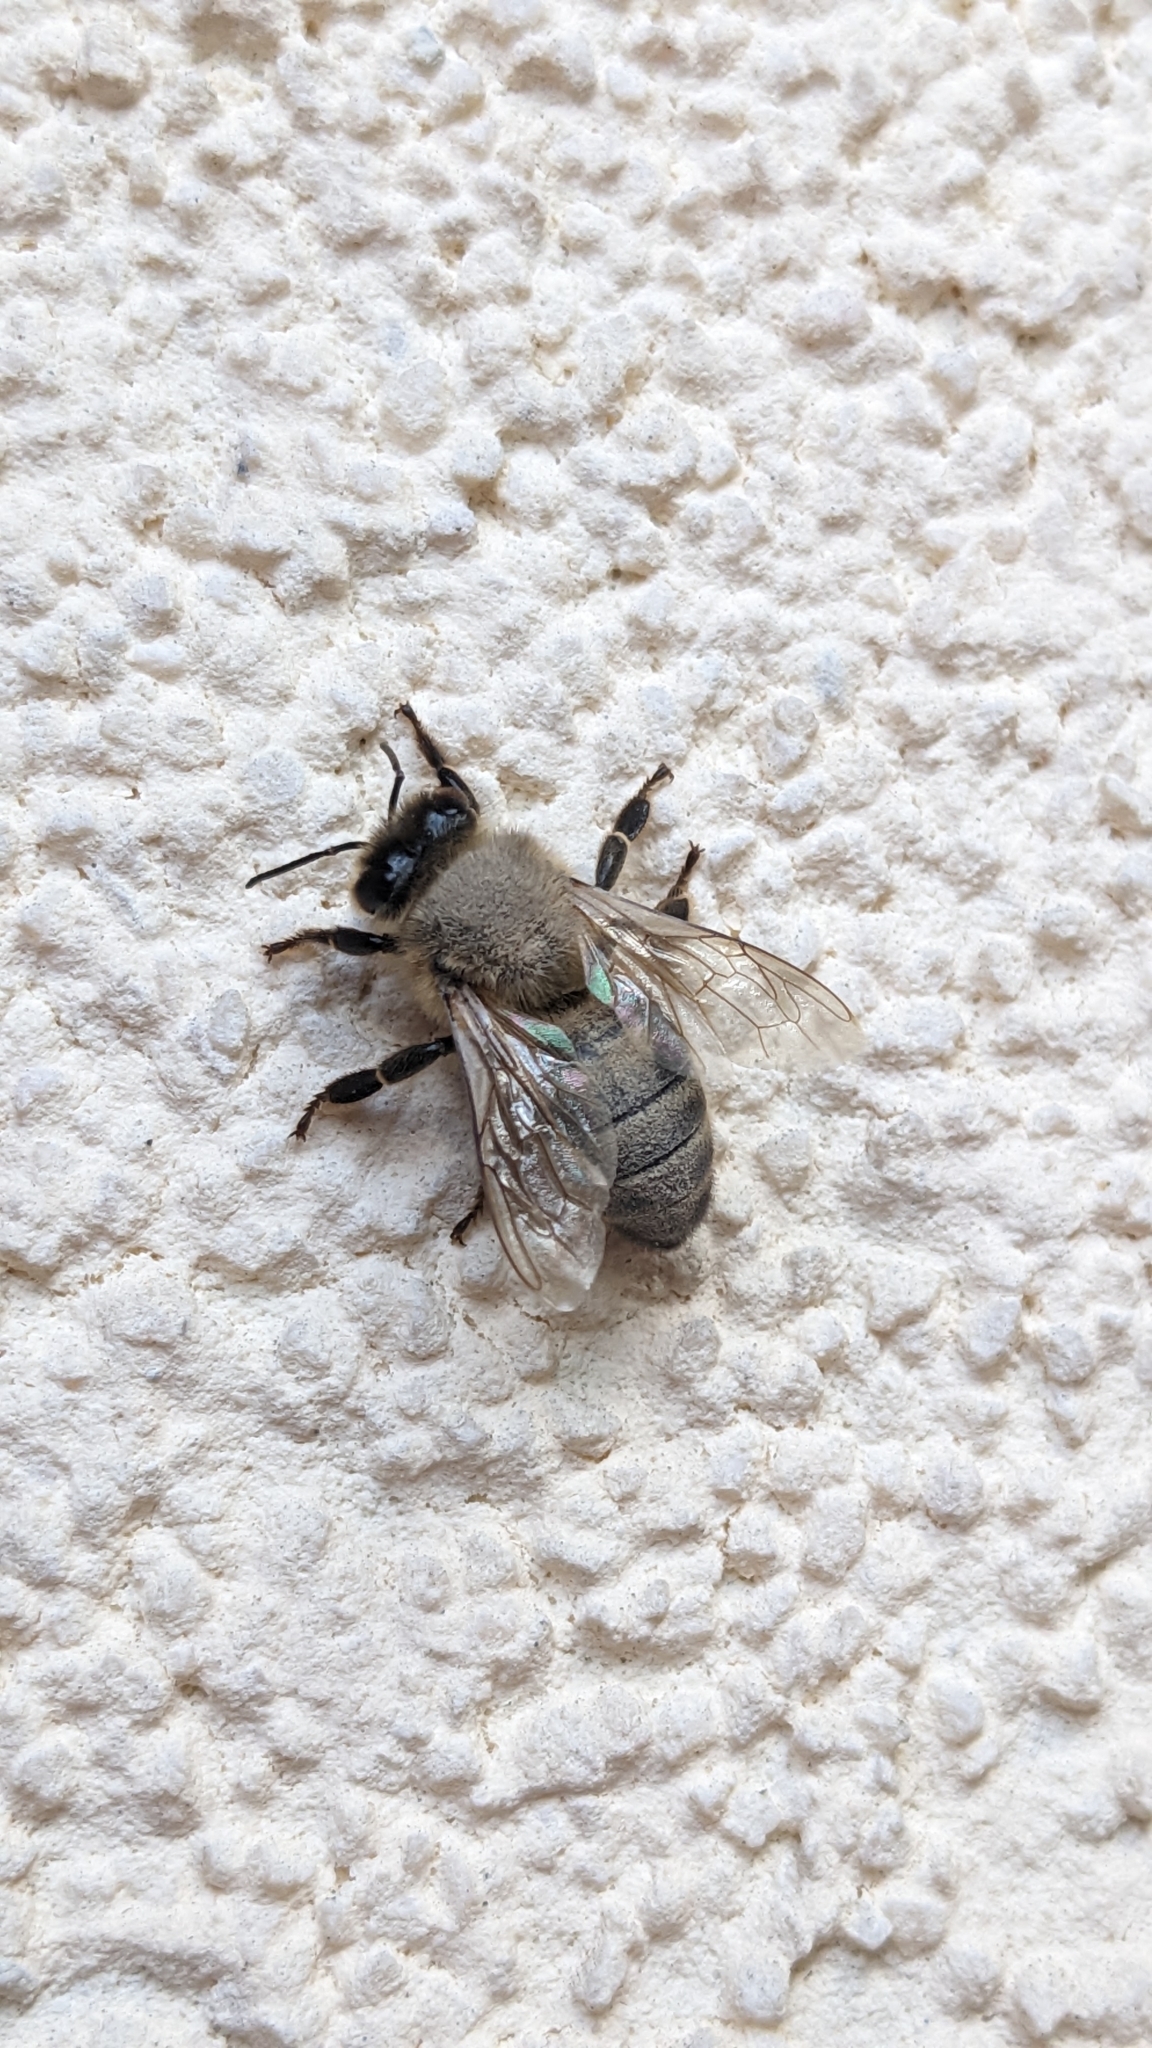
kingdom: Animalia
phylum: Arthropoda
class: Insecta
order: Hymenoptera
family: Apidae
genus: Apis
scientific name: Apis mellifera
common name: Honey bee
